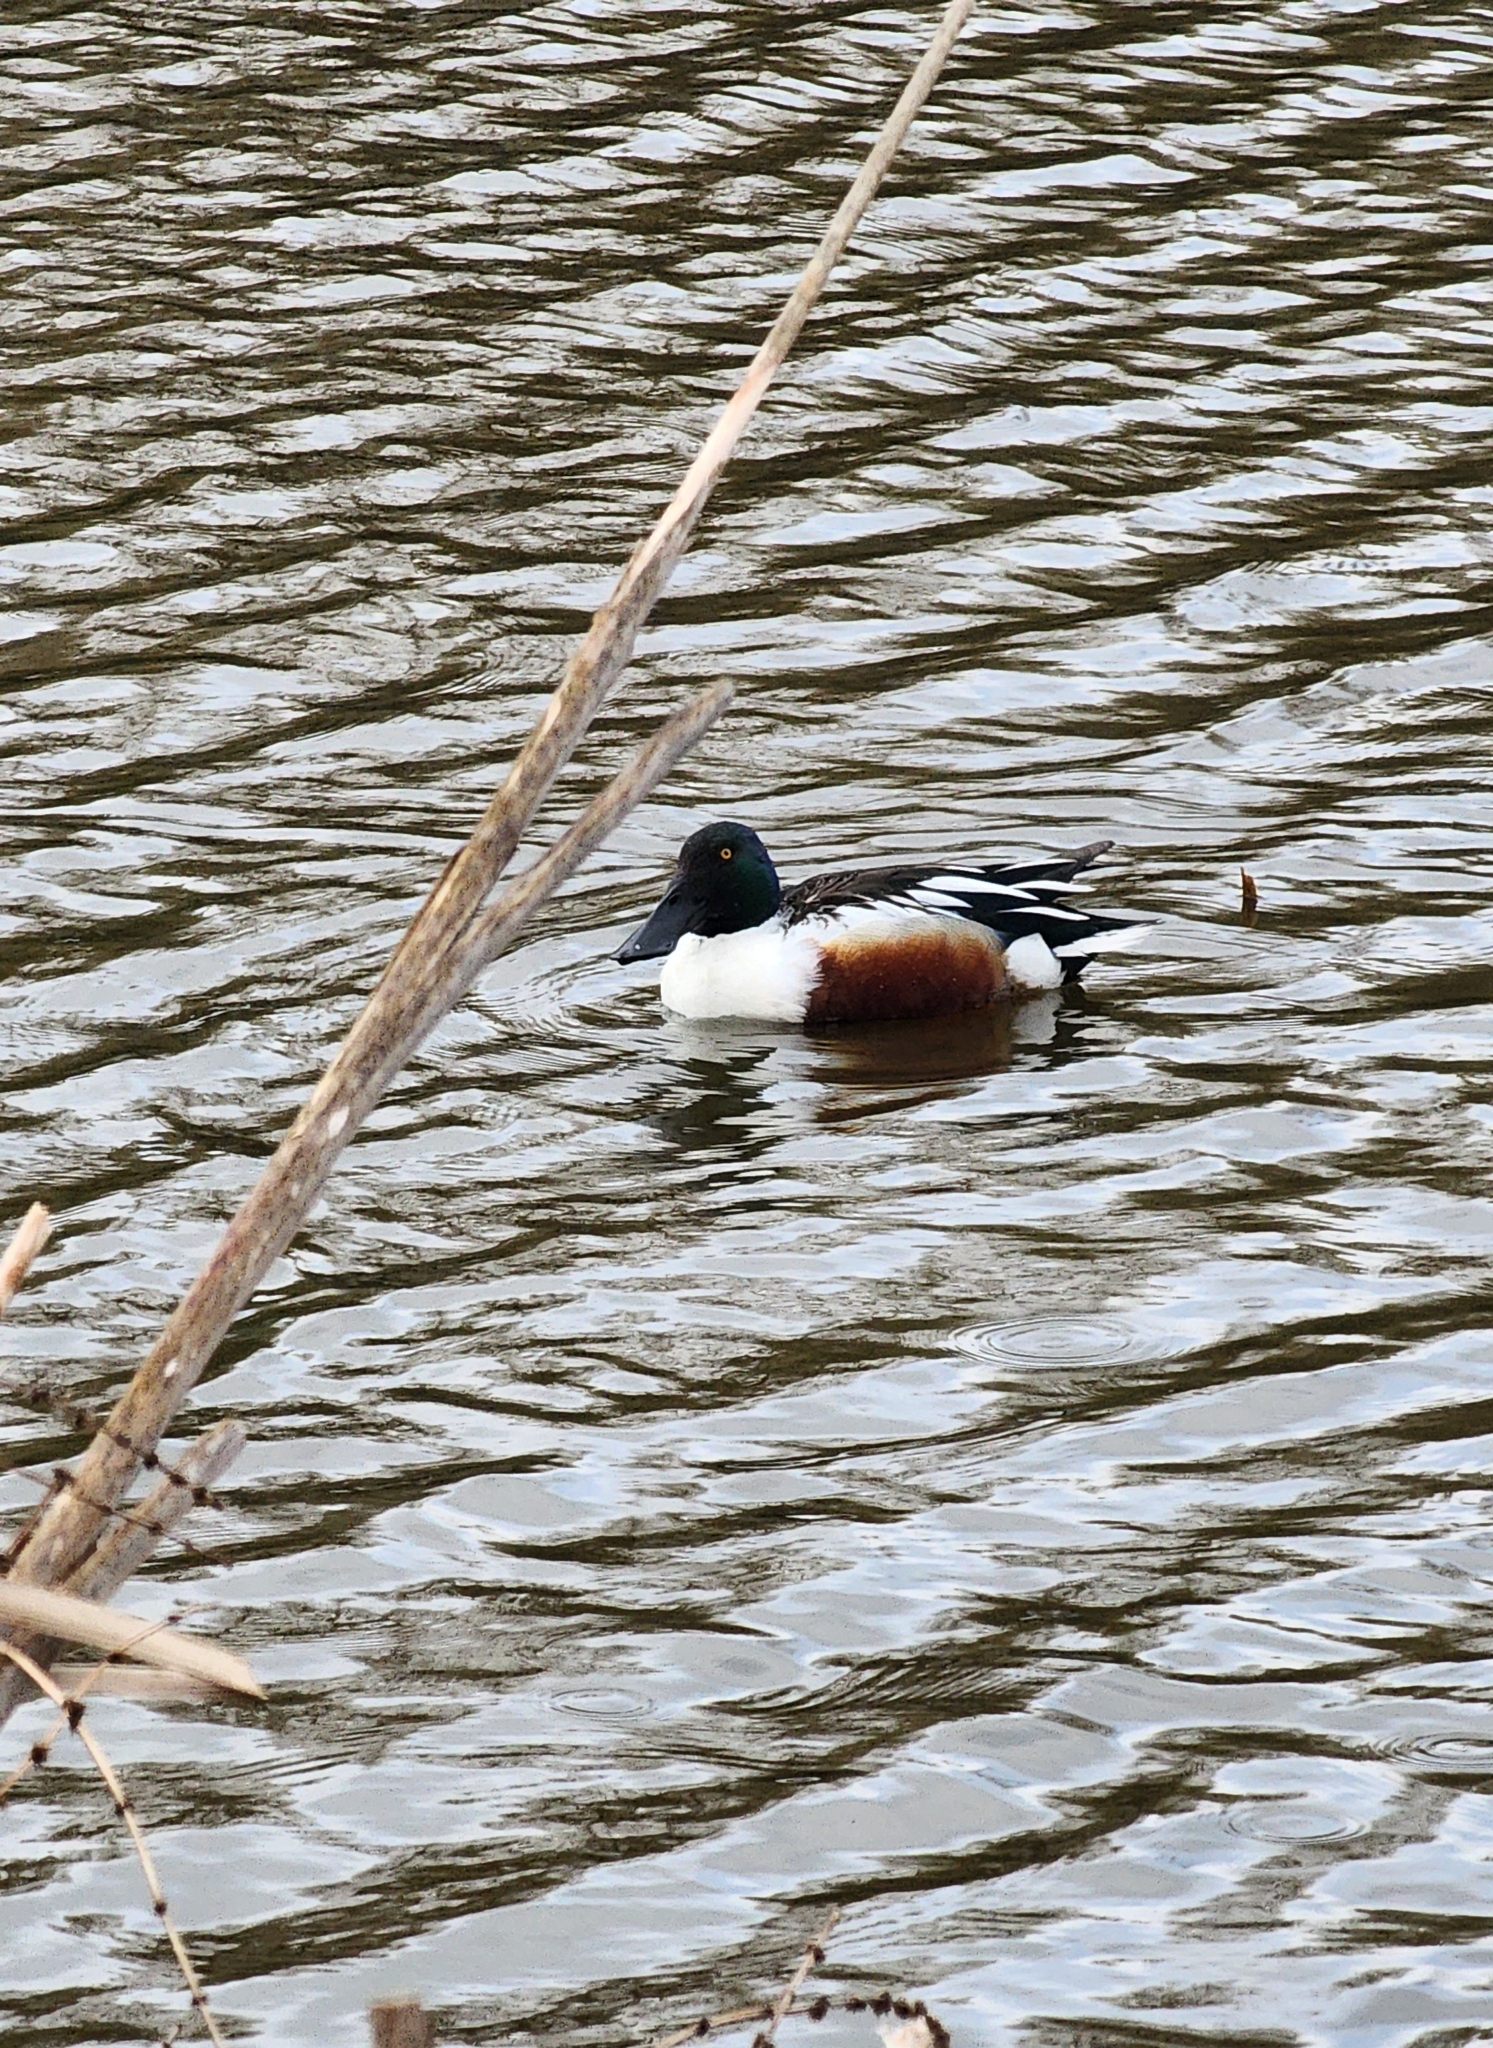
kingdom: Animalia
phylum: Chordata
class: Aves
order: Anseriformes
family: Anatidae
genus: Spatula
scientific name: Spatula clypeata
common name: Northern shoveler
